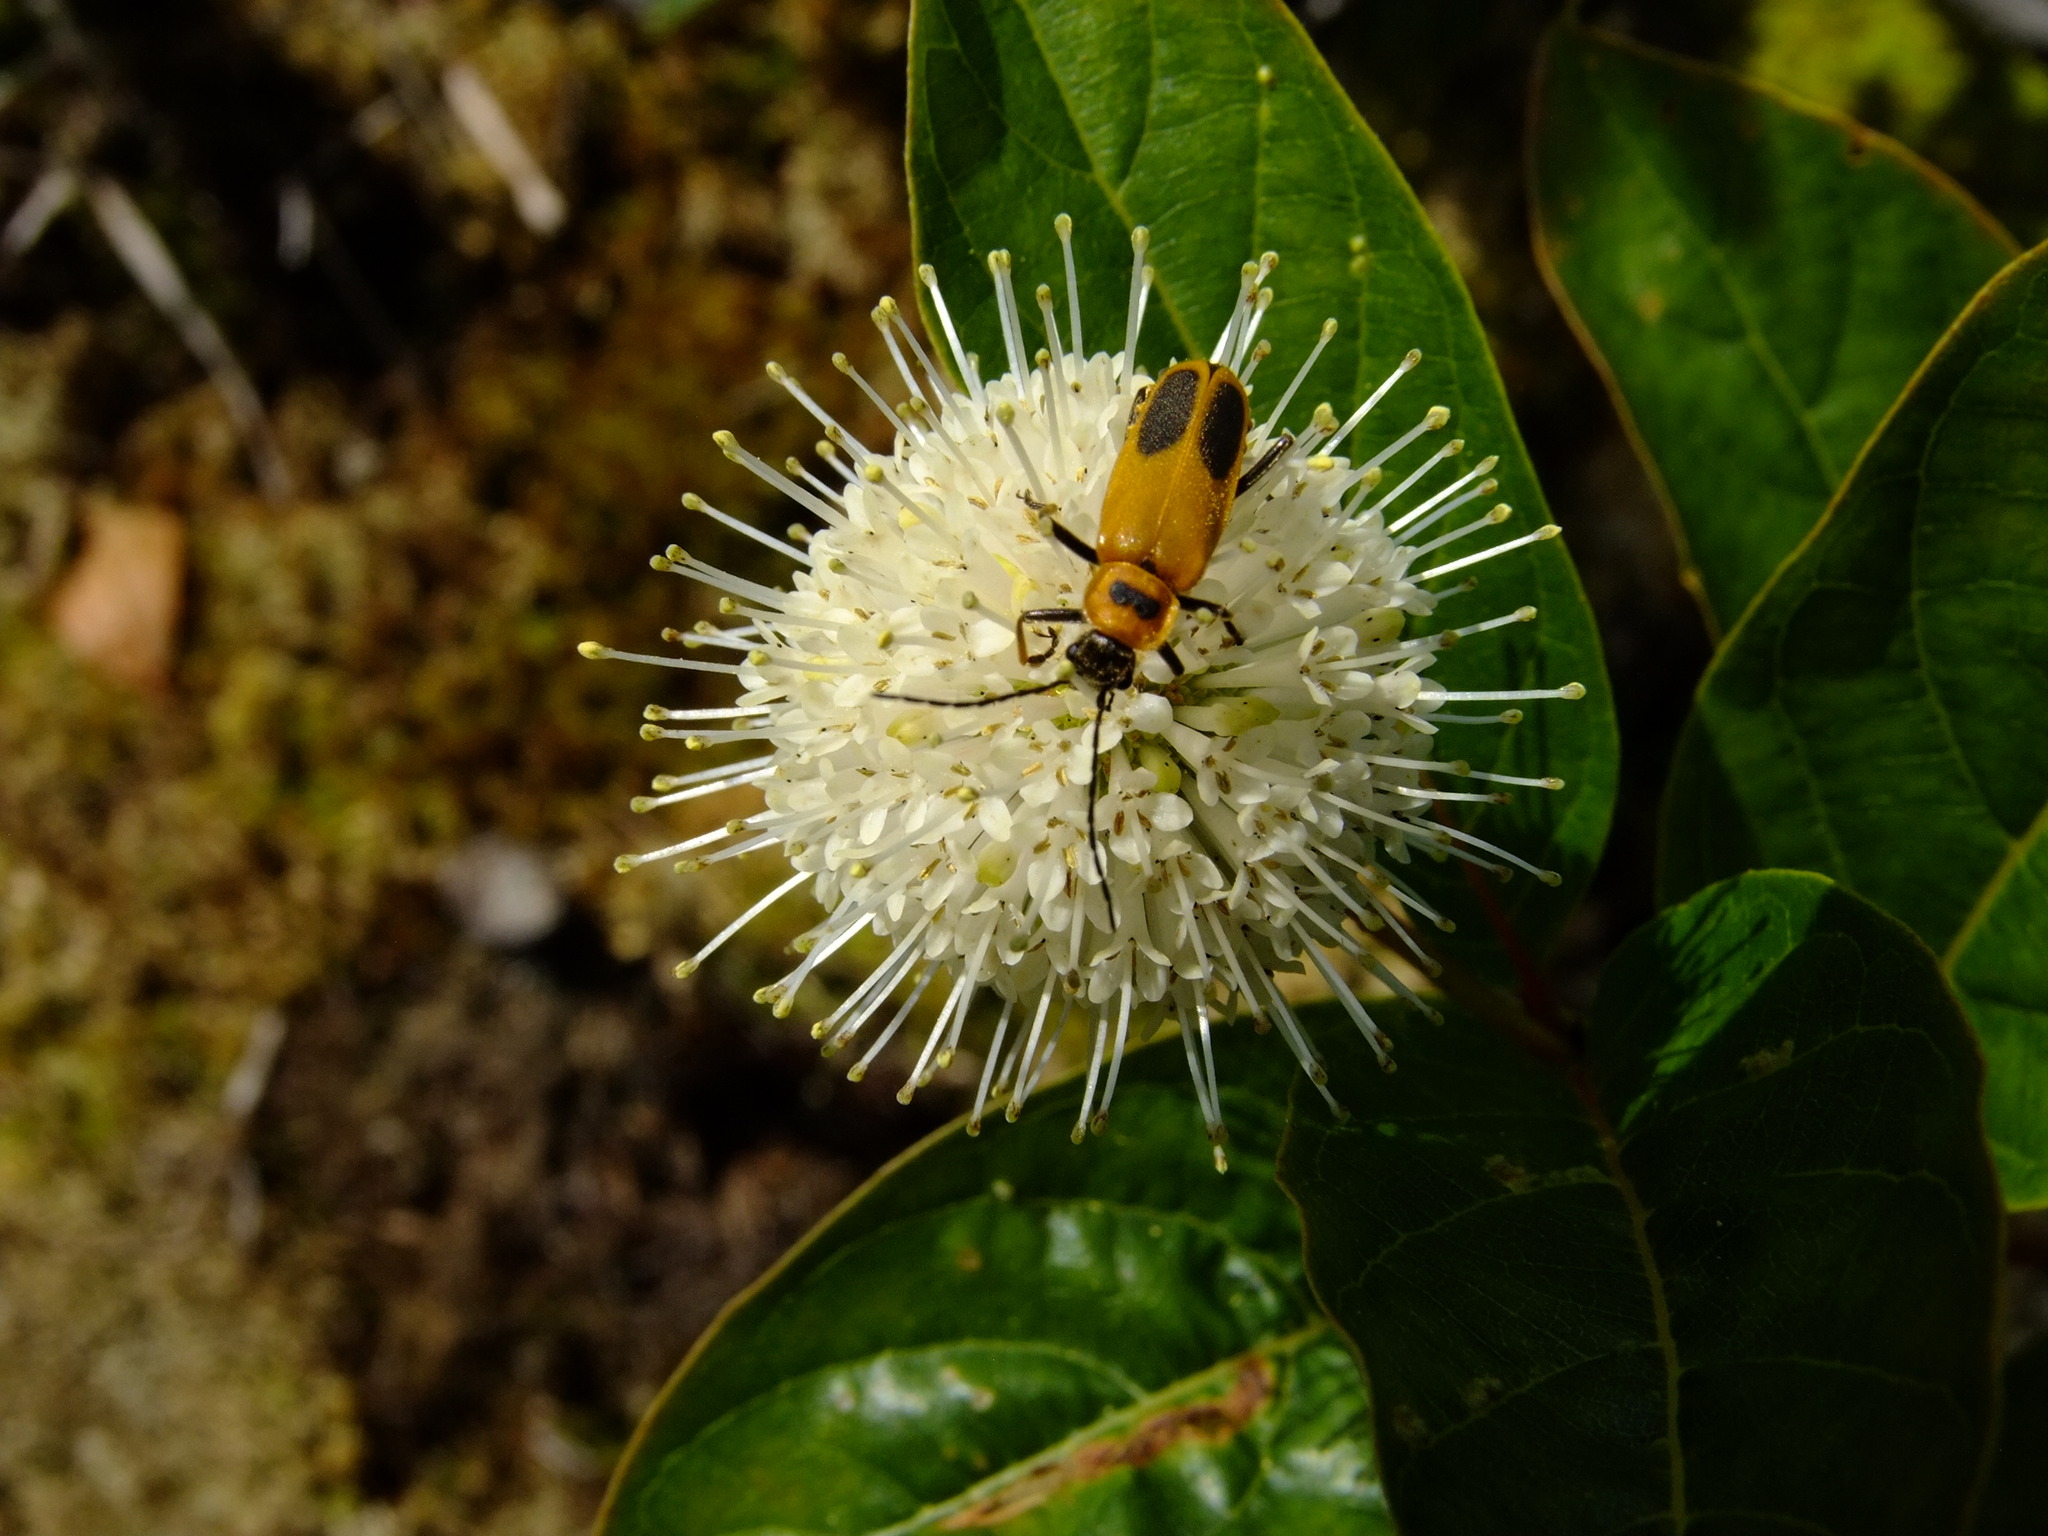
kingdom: Animalia
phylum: Arthropoda
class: Insecta
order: Coleoptera
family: Cantharidae
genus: Chauliognathus
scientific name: Chauliognathus pensylvanicus
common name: Goldenrod soldier beetle
